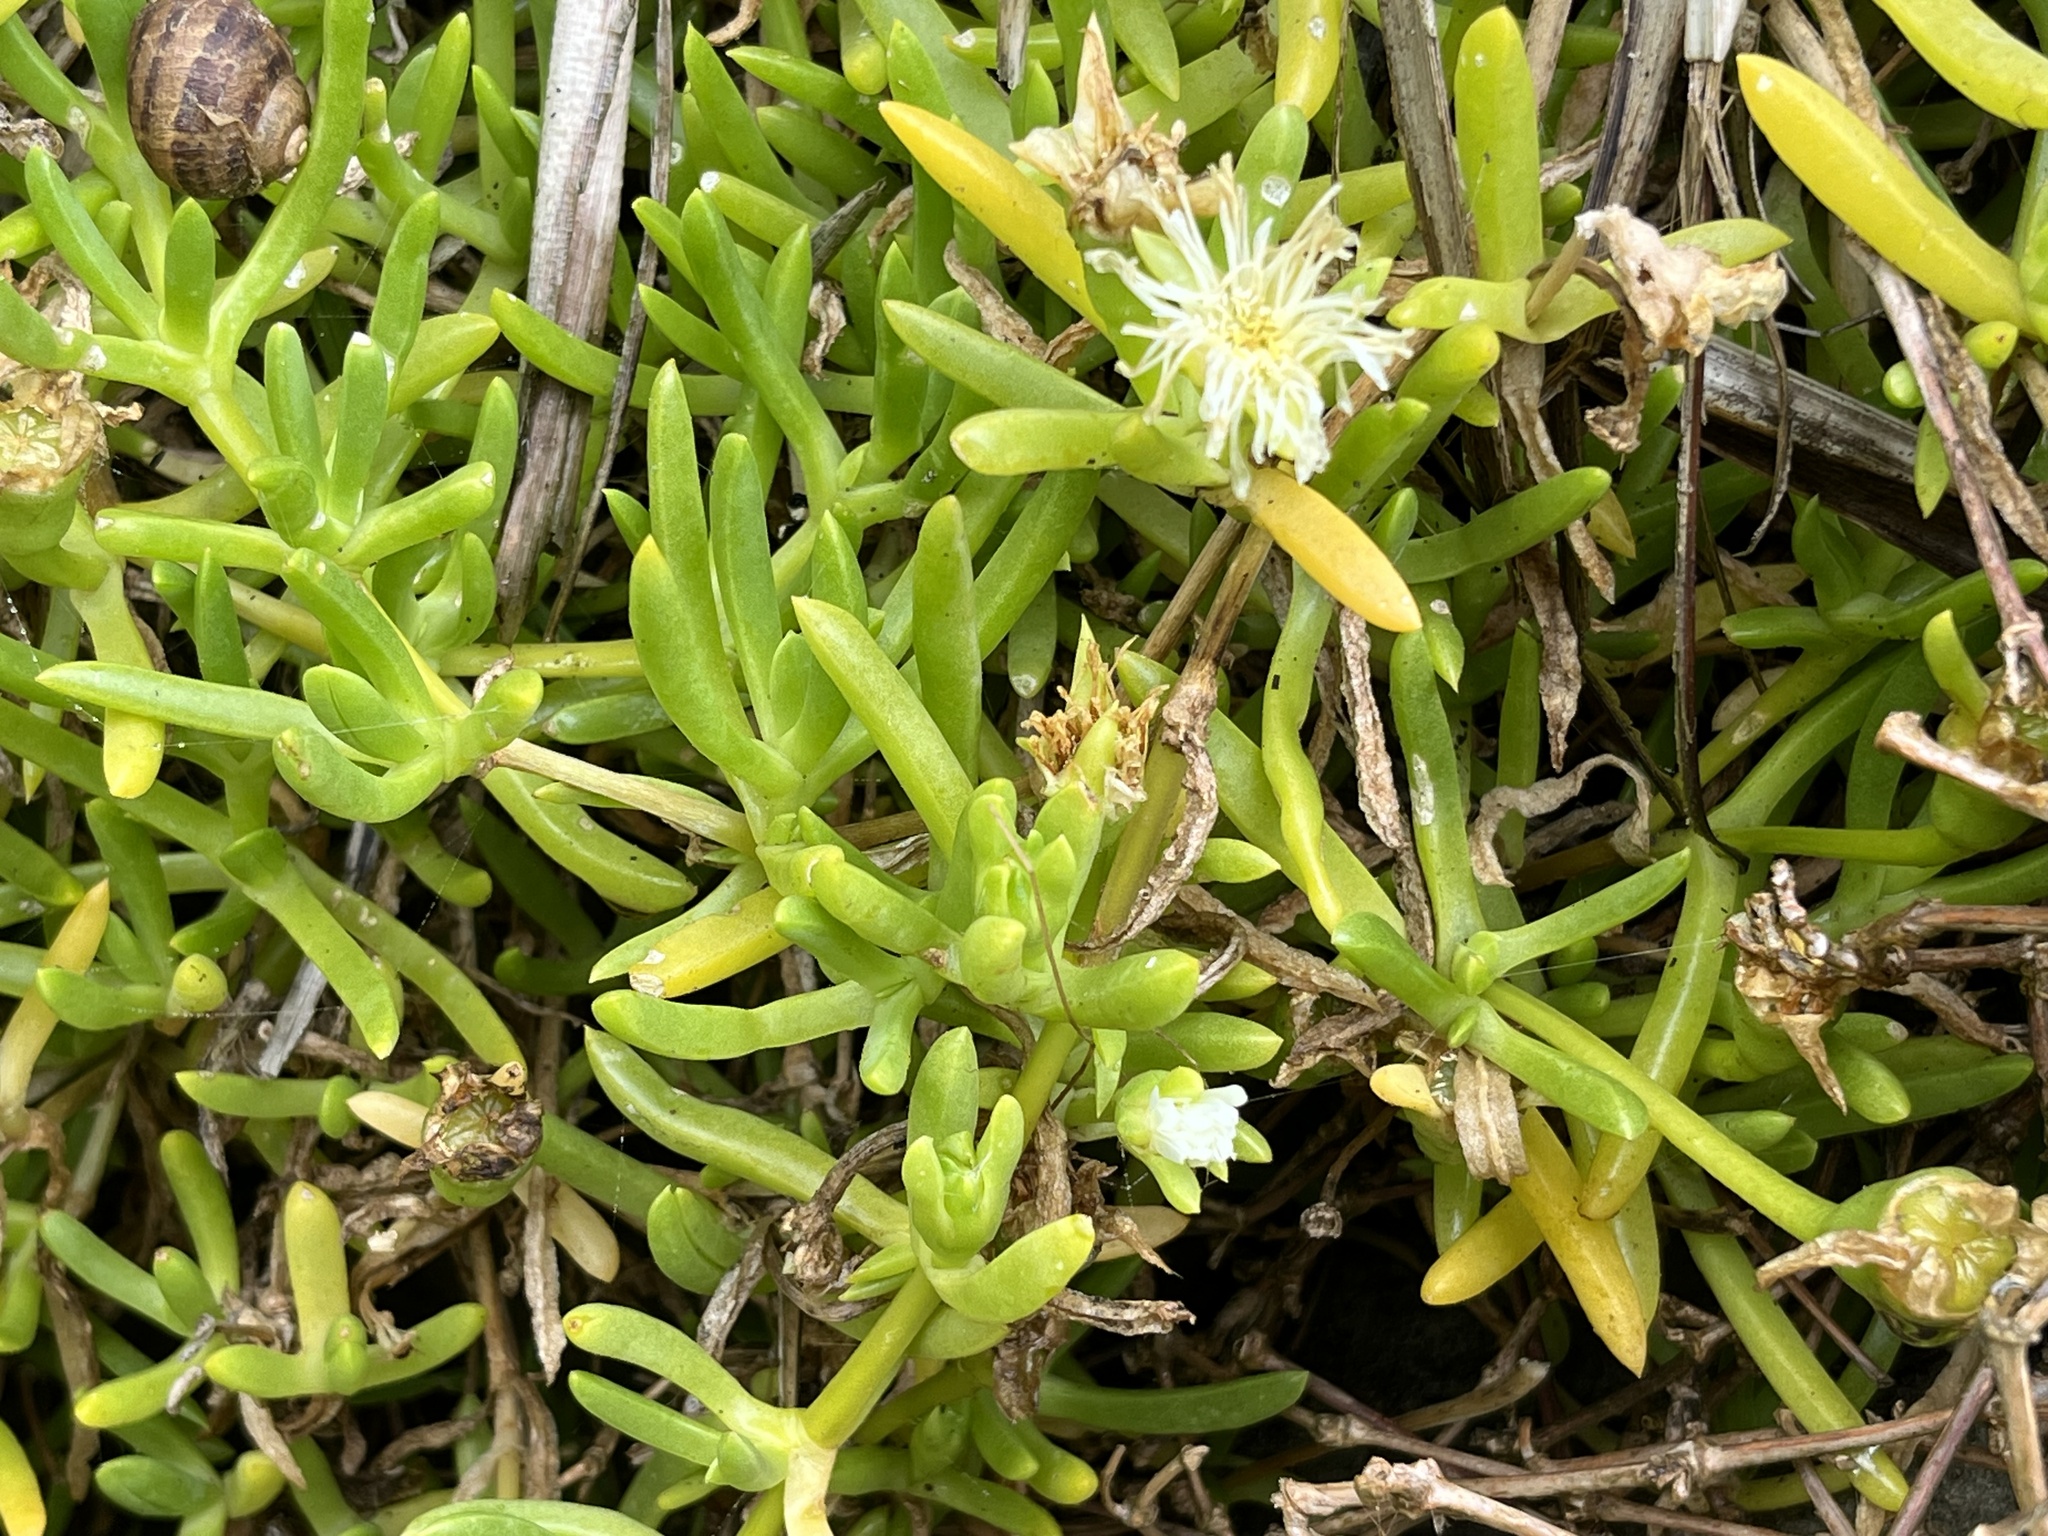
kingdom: Plantae
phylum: Tracheophyta
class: Magnoliopsida
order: Caryophyllales
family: Aizoaceae
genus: Disphyma
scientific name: Disphyma australe
